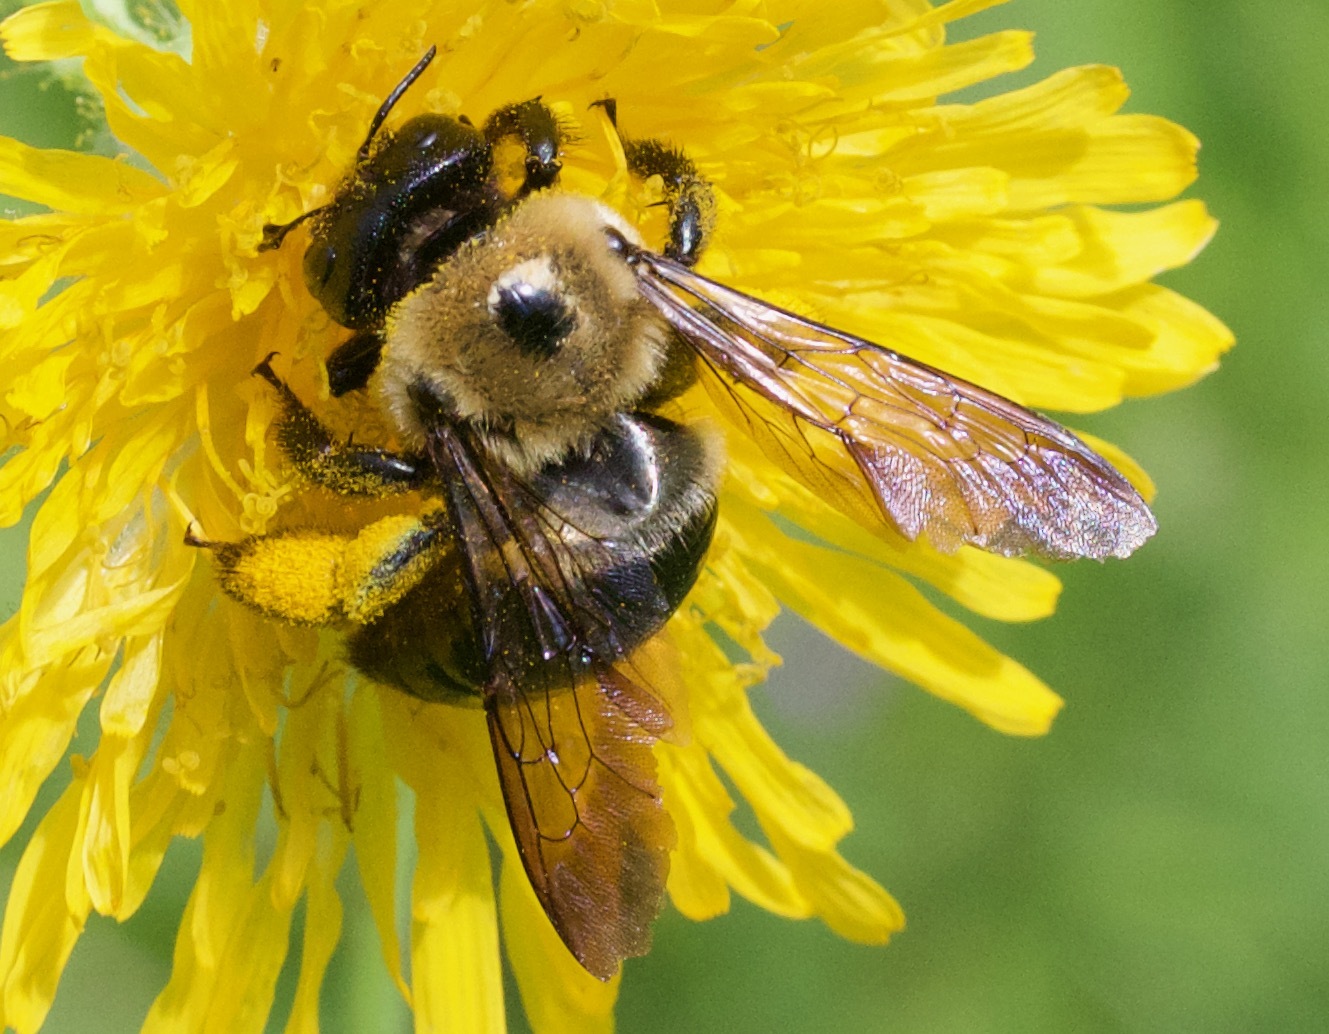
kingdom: Animalia
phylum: Arthropoda
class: Insecta
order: Hymenoptera
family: Apidae
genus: Xylocopa
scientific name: Xylocopa virginica
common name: Carpenter bee
